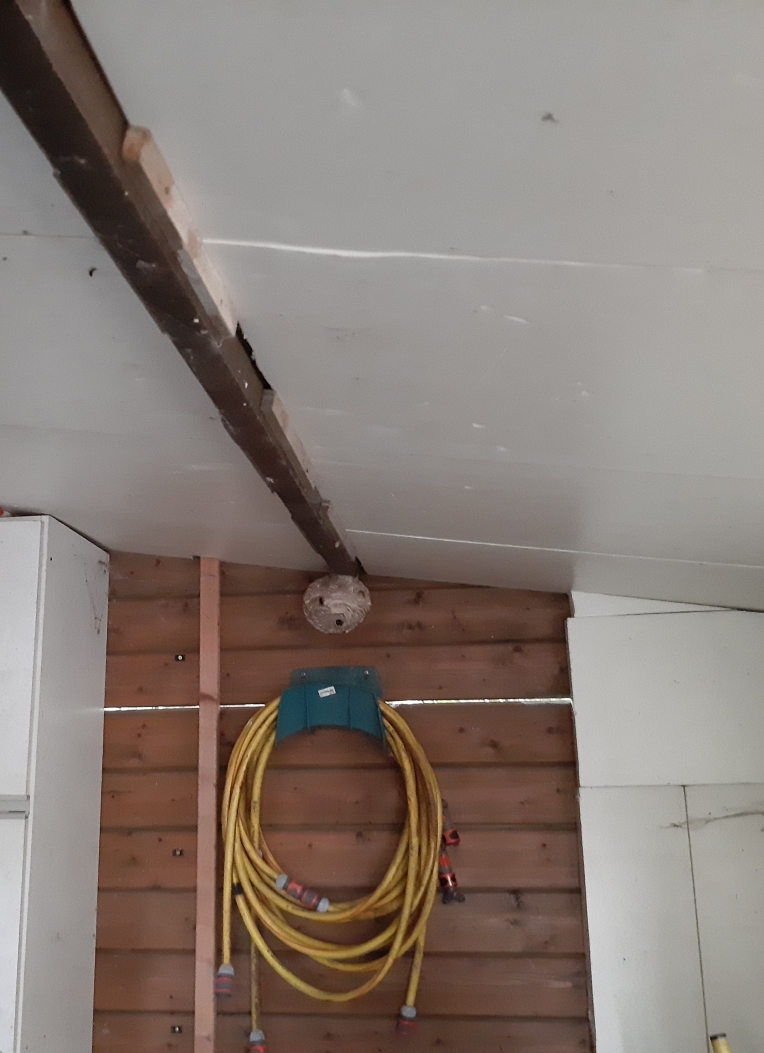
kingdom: Animalia
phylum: Arthropoda
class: Insecta
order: Hymenoptera
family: Vespidae
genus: Vespa
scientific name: Vespa velutina
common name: Asian hornet
